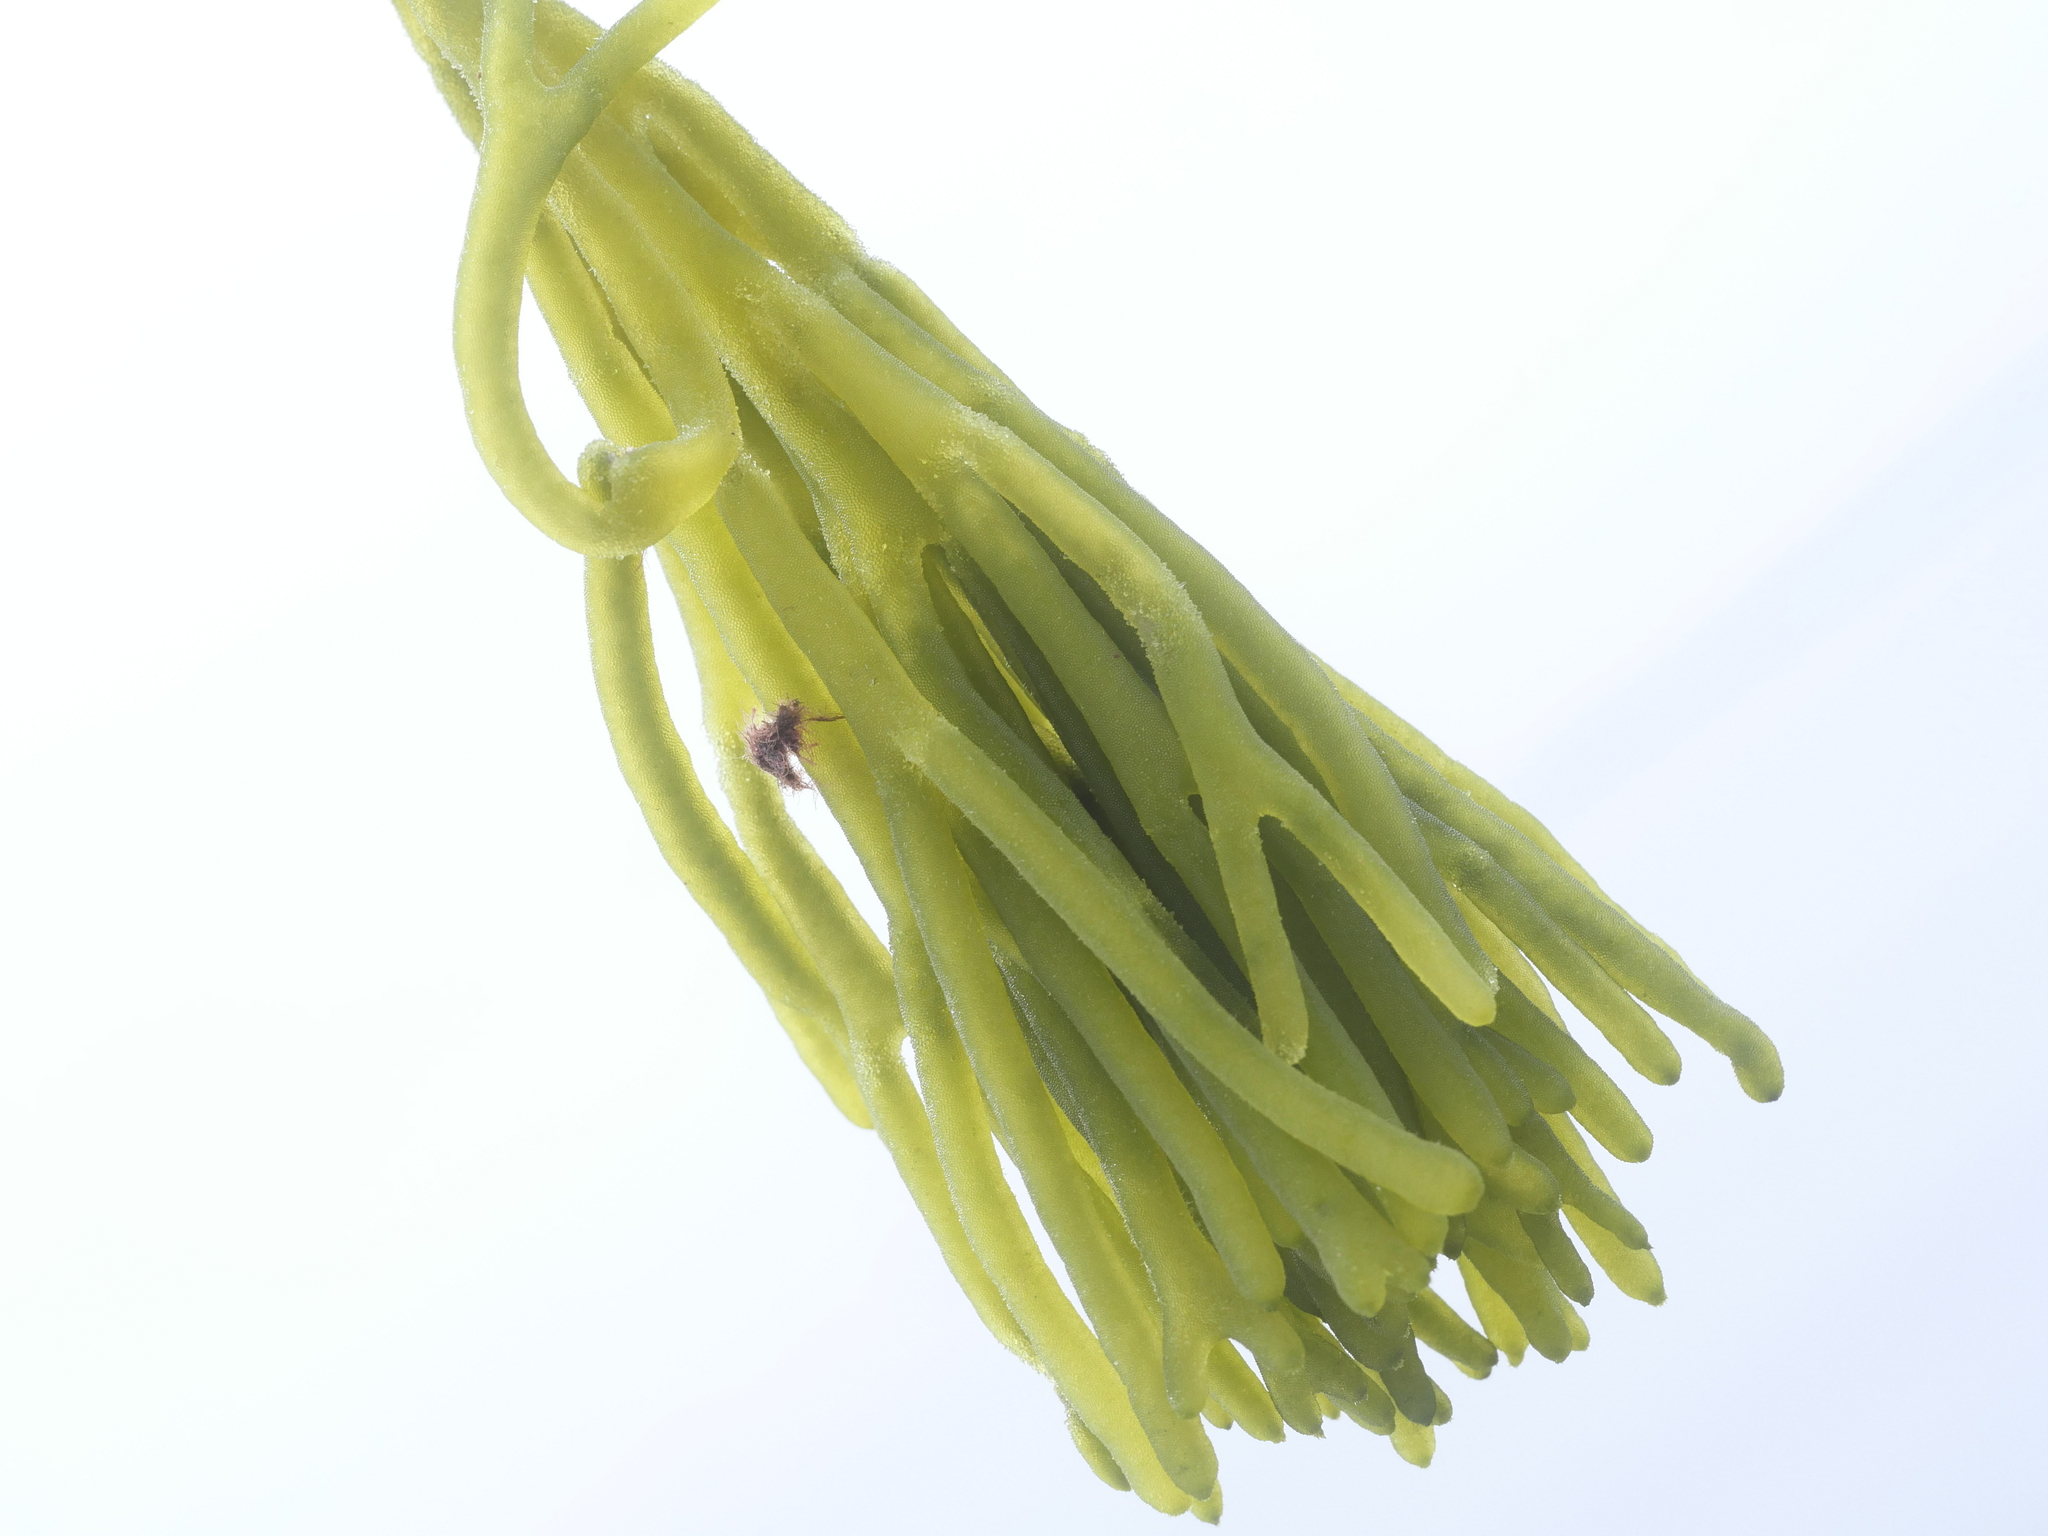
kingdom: Plantae
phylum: Chlorophyta
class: Ulvophyceae
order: Bryopsidales
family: Codiaceae
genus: Codium
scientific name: Codium fragile
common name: Dead man's fingers
